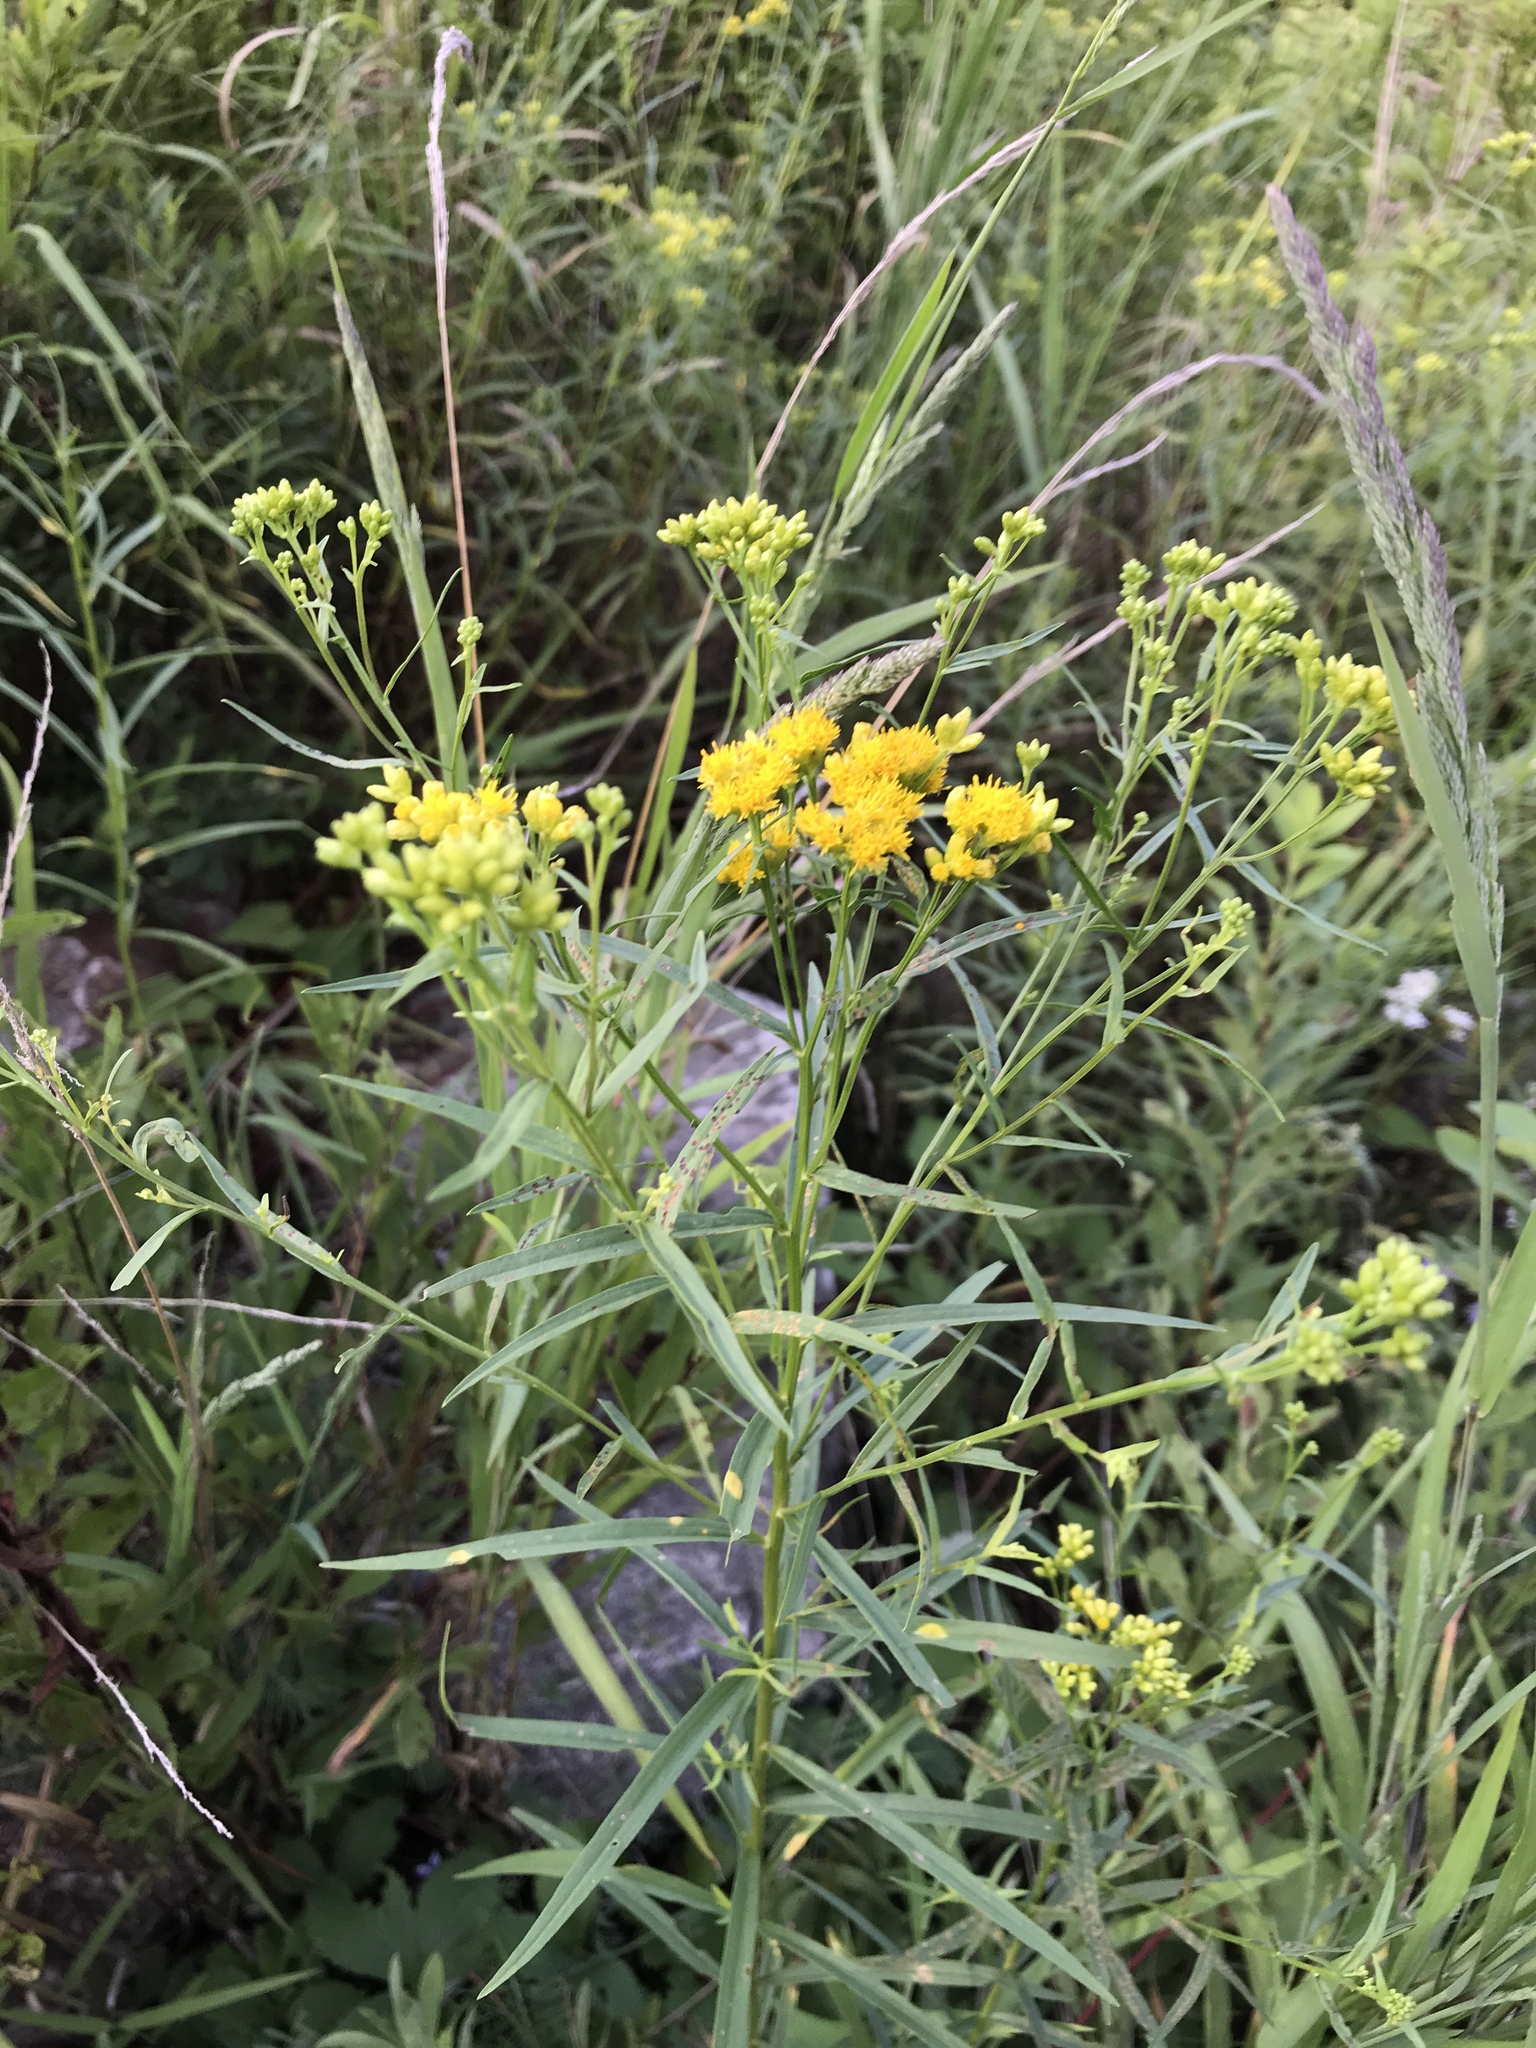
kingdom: Plantae
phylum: Tracheophyta
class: Magnoliopsida
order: Asterales
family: Asteraceae
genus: Euthamia
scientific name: Euthamia graminifolia
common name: Common goldentop
